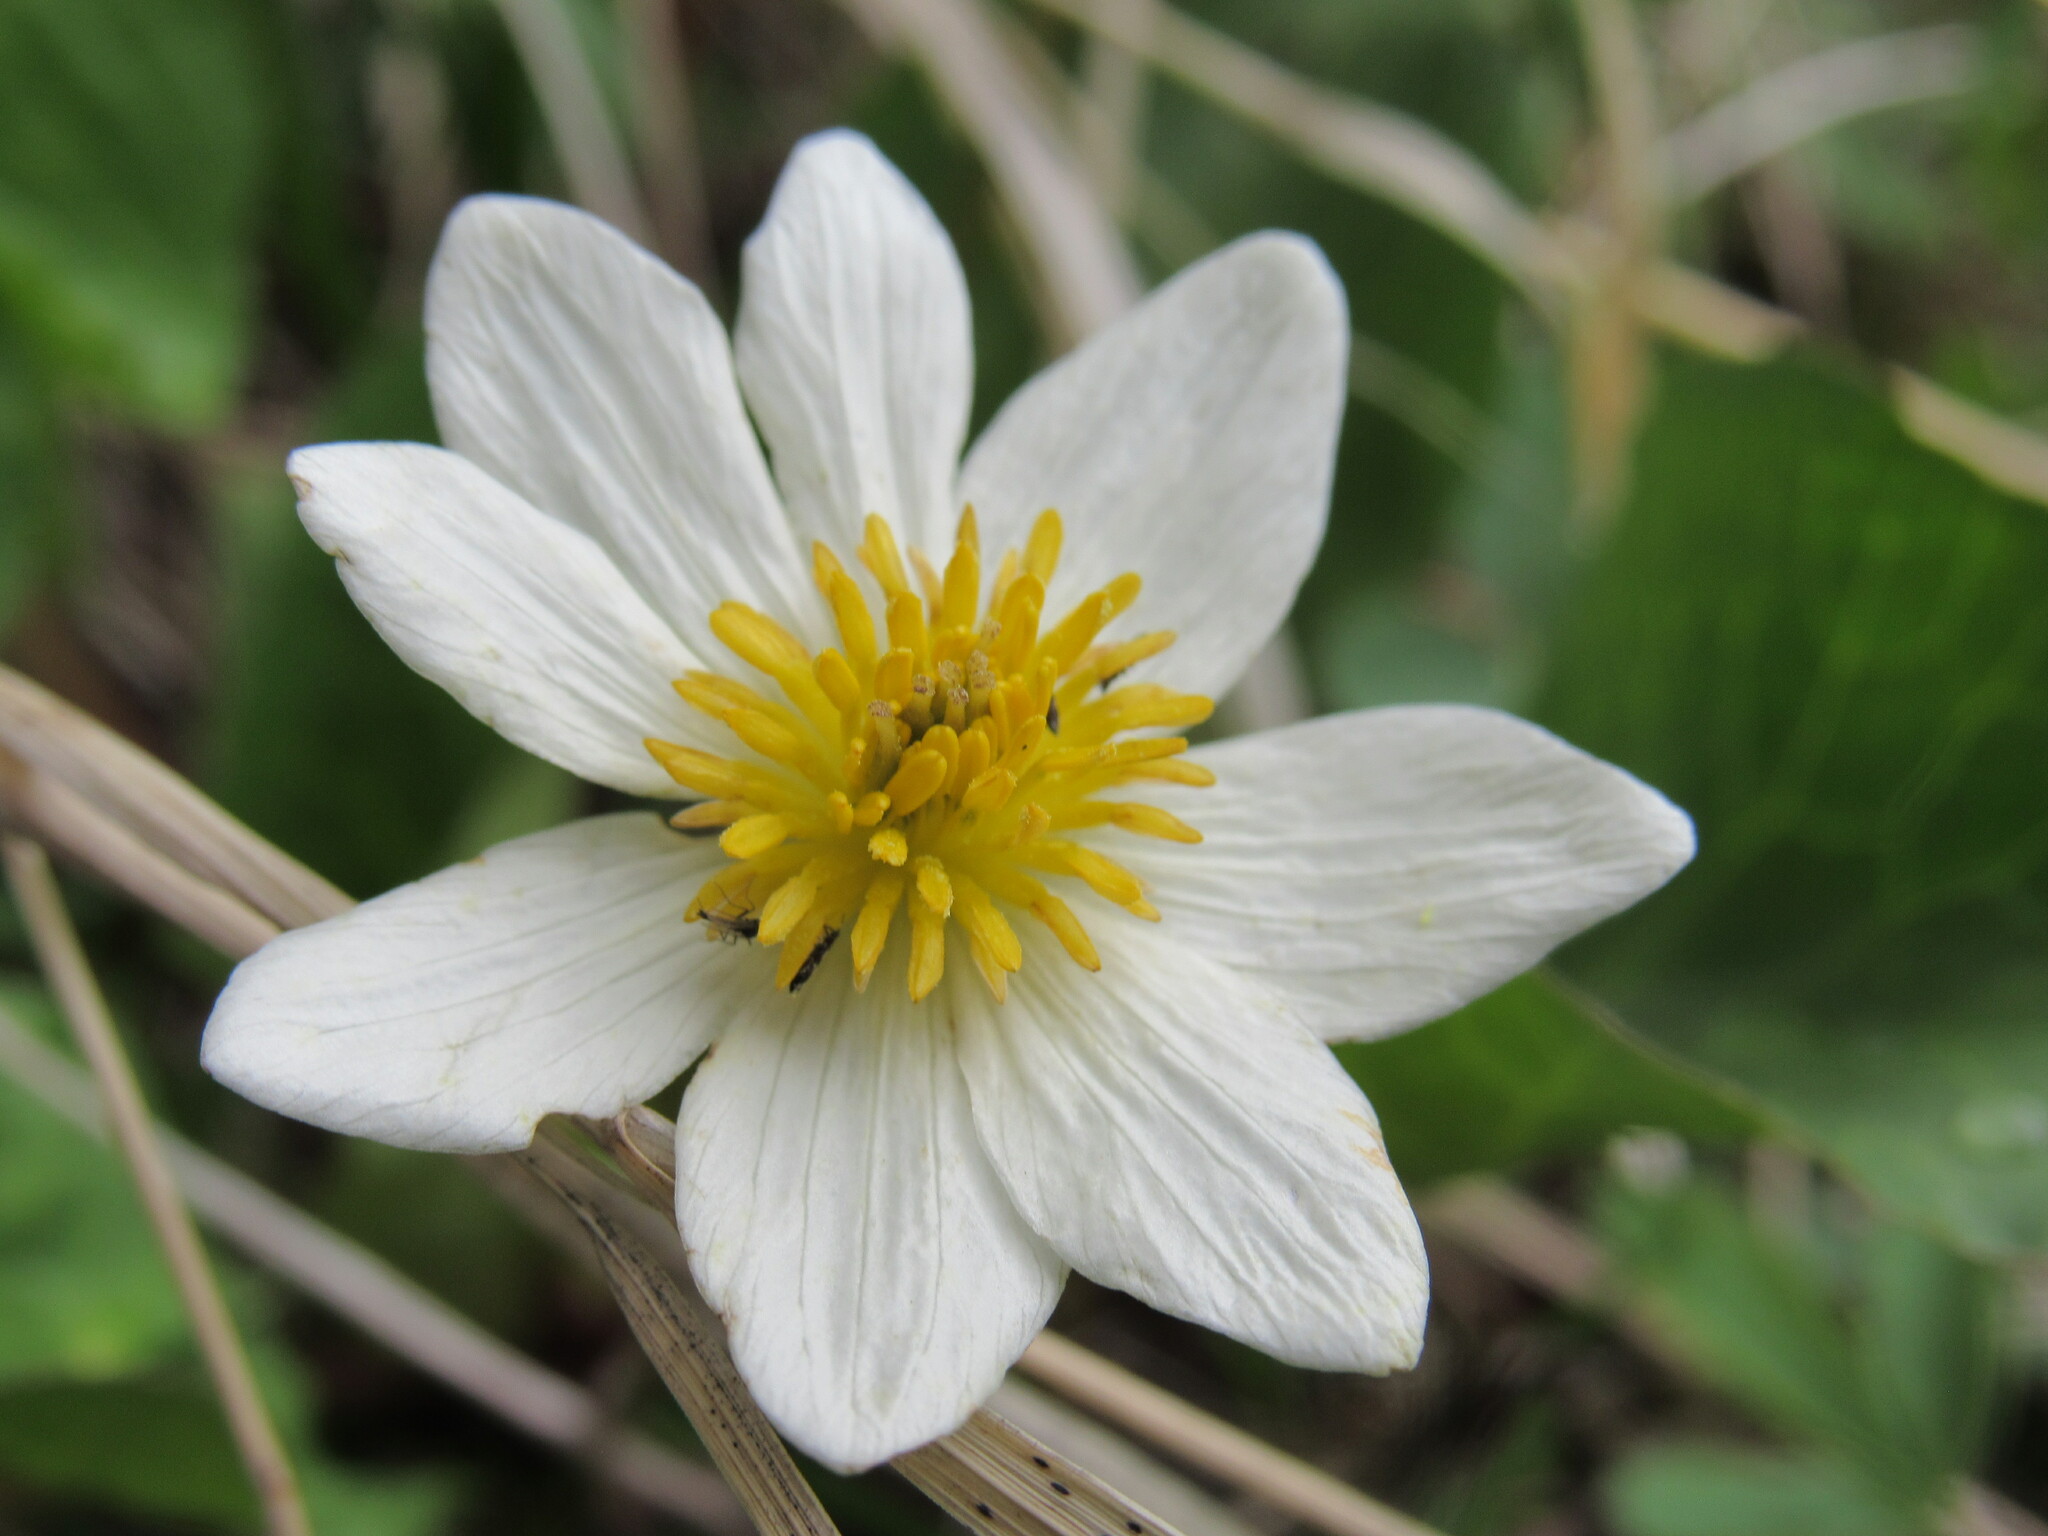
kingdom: Plantae
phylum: Tracheophyta
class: Magnoliopsida
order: Ranunculales
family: Ranunculaceae
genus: Caltha
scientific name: Caltha leptosepala
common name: Elkslip
